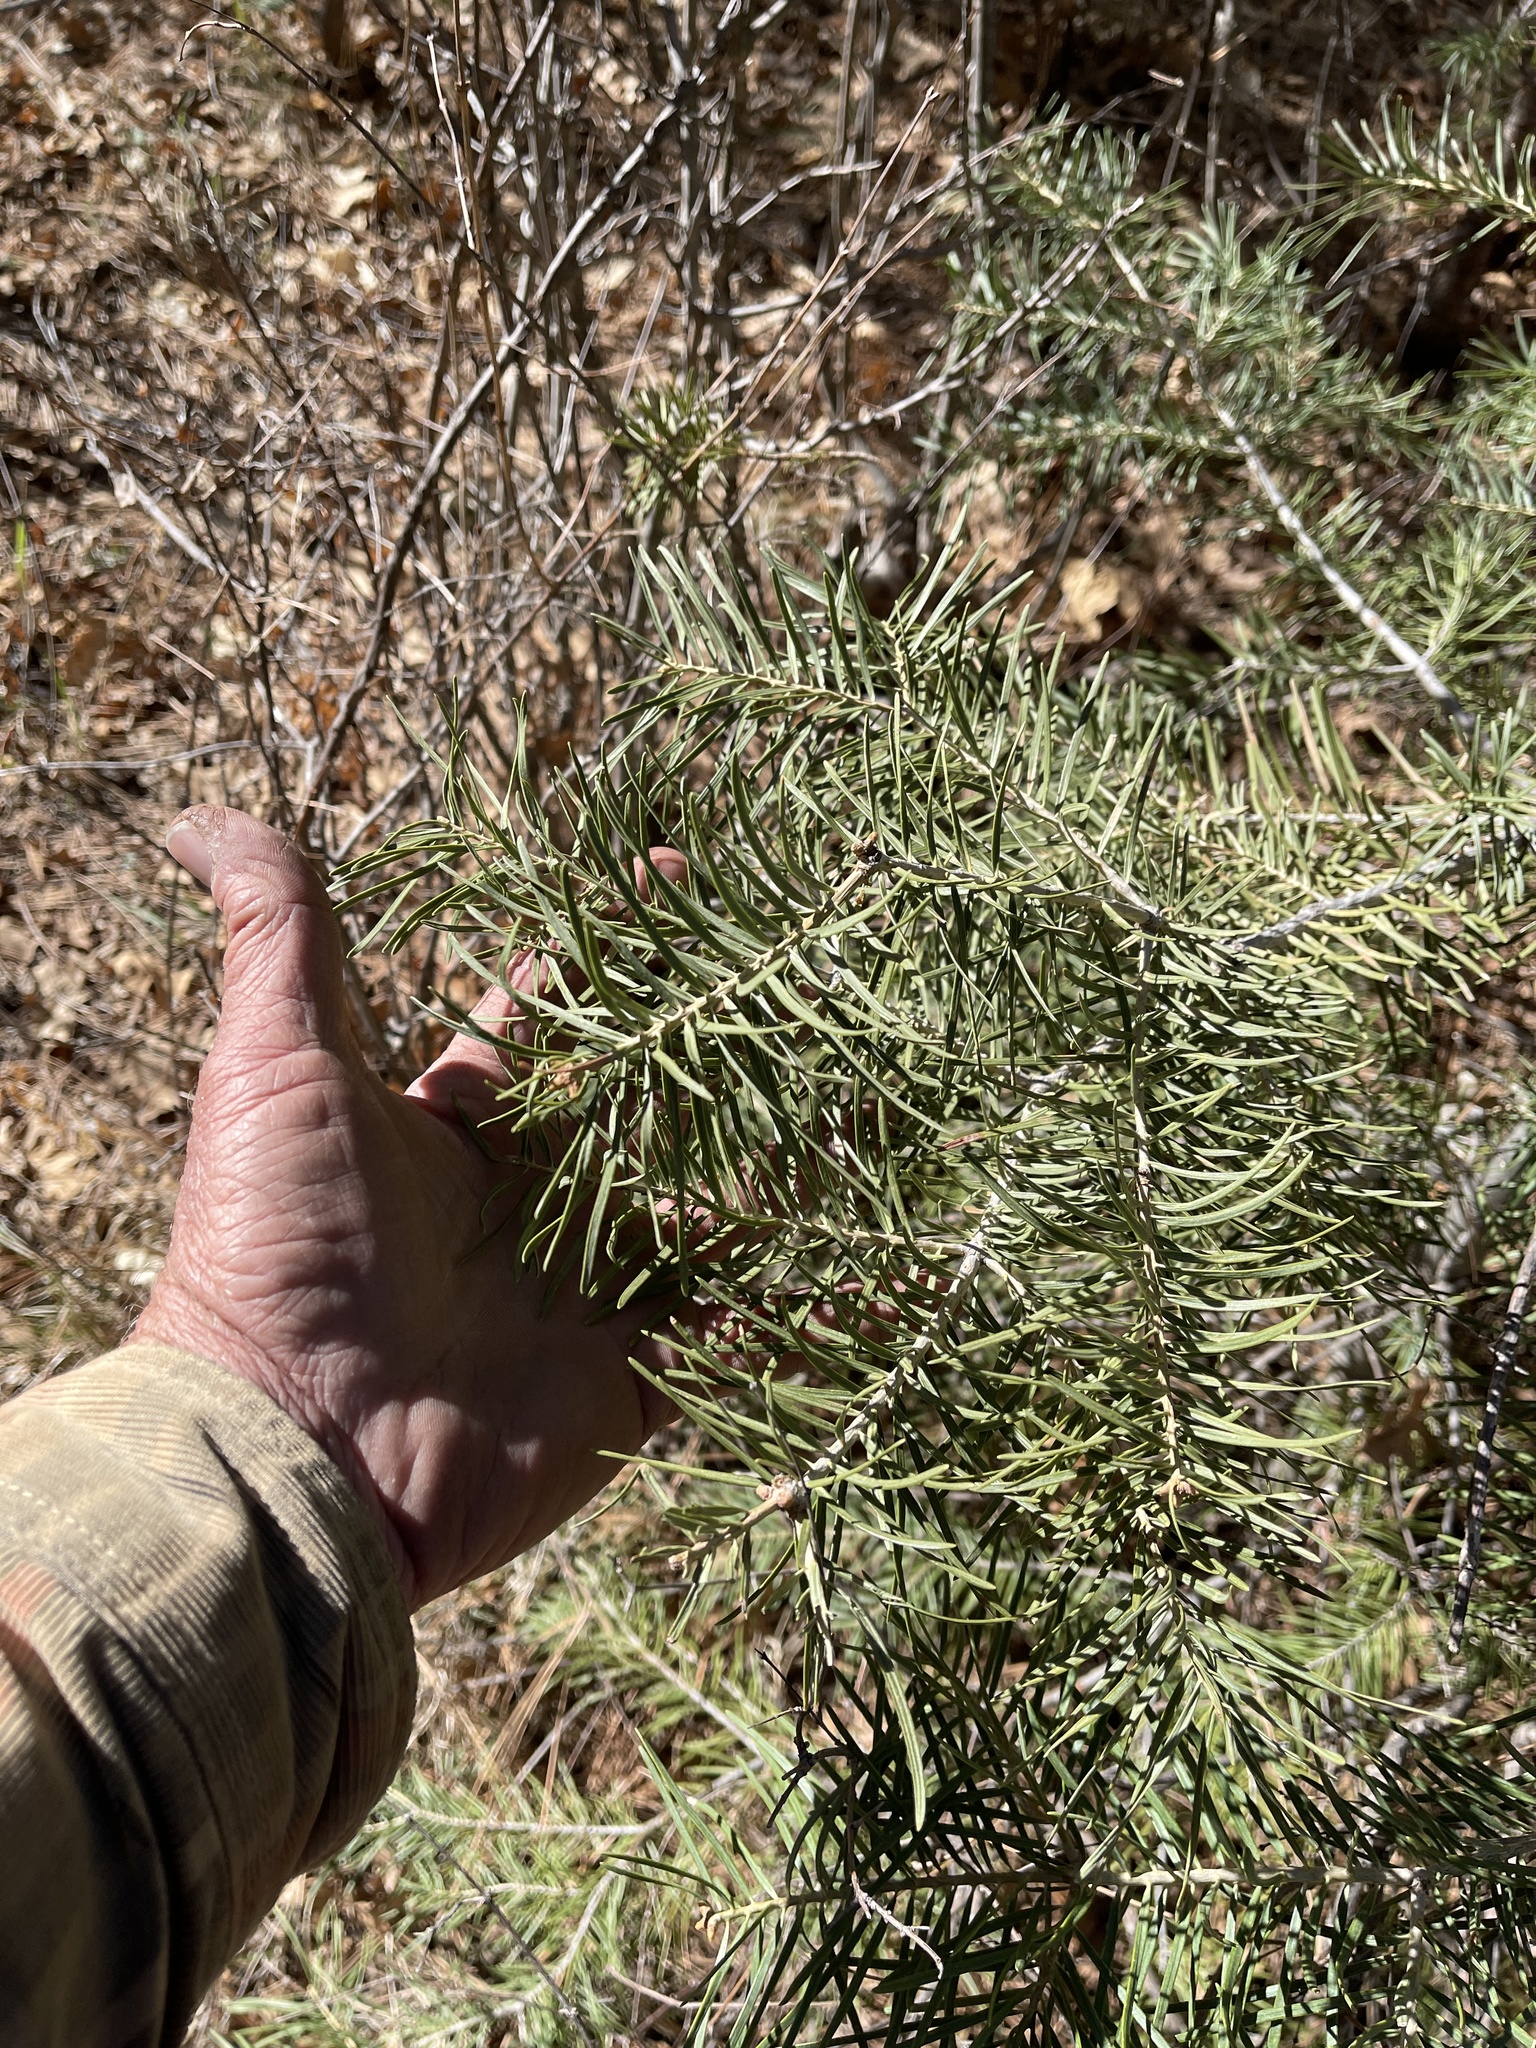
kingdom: Plantae
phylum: Tracheophyta
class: Pinopsida
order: Pinales
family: Pinaceae
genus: Abies
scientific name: Abies concolor
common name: Colorado fir
